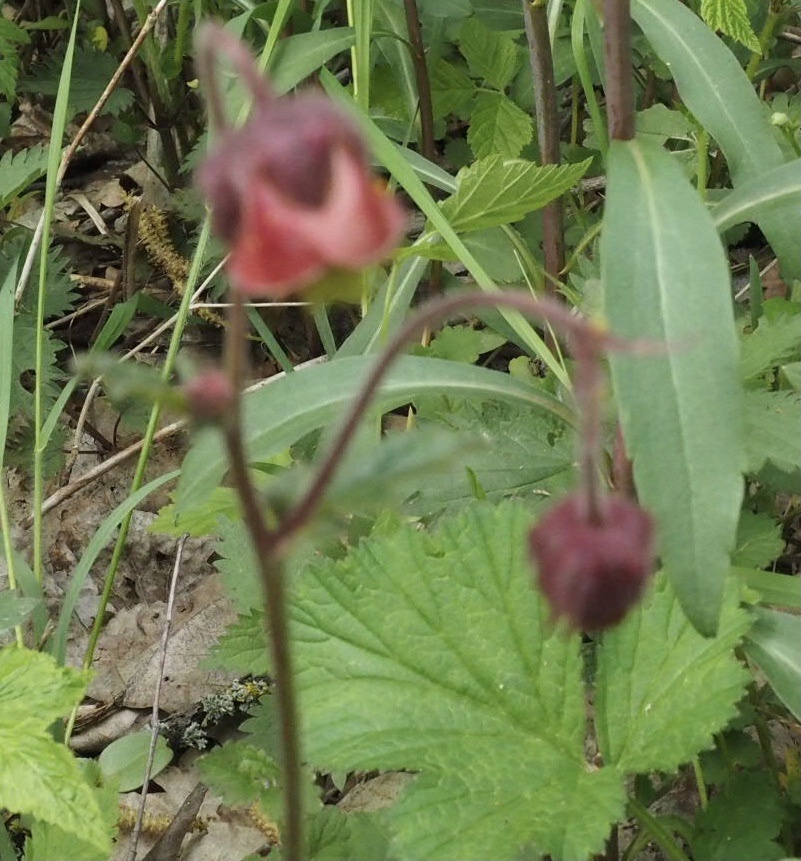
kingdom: Plantae
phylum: Tracheophyta
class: Magnoliopsida
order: Rosales
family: Rosaceae
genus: Geum
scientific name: Geum rivale
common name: Water avens
